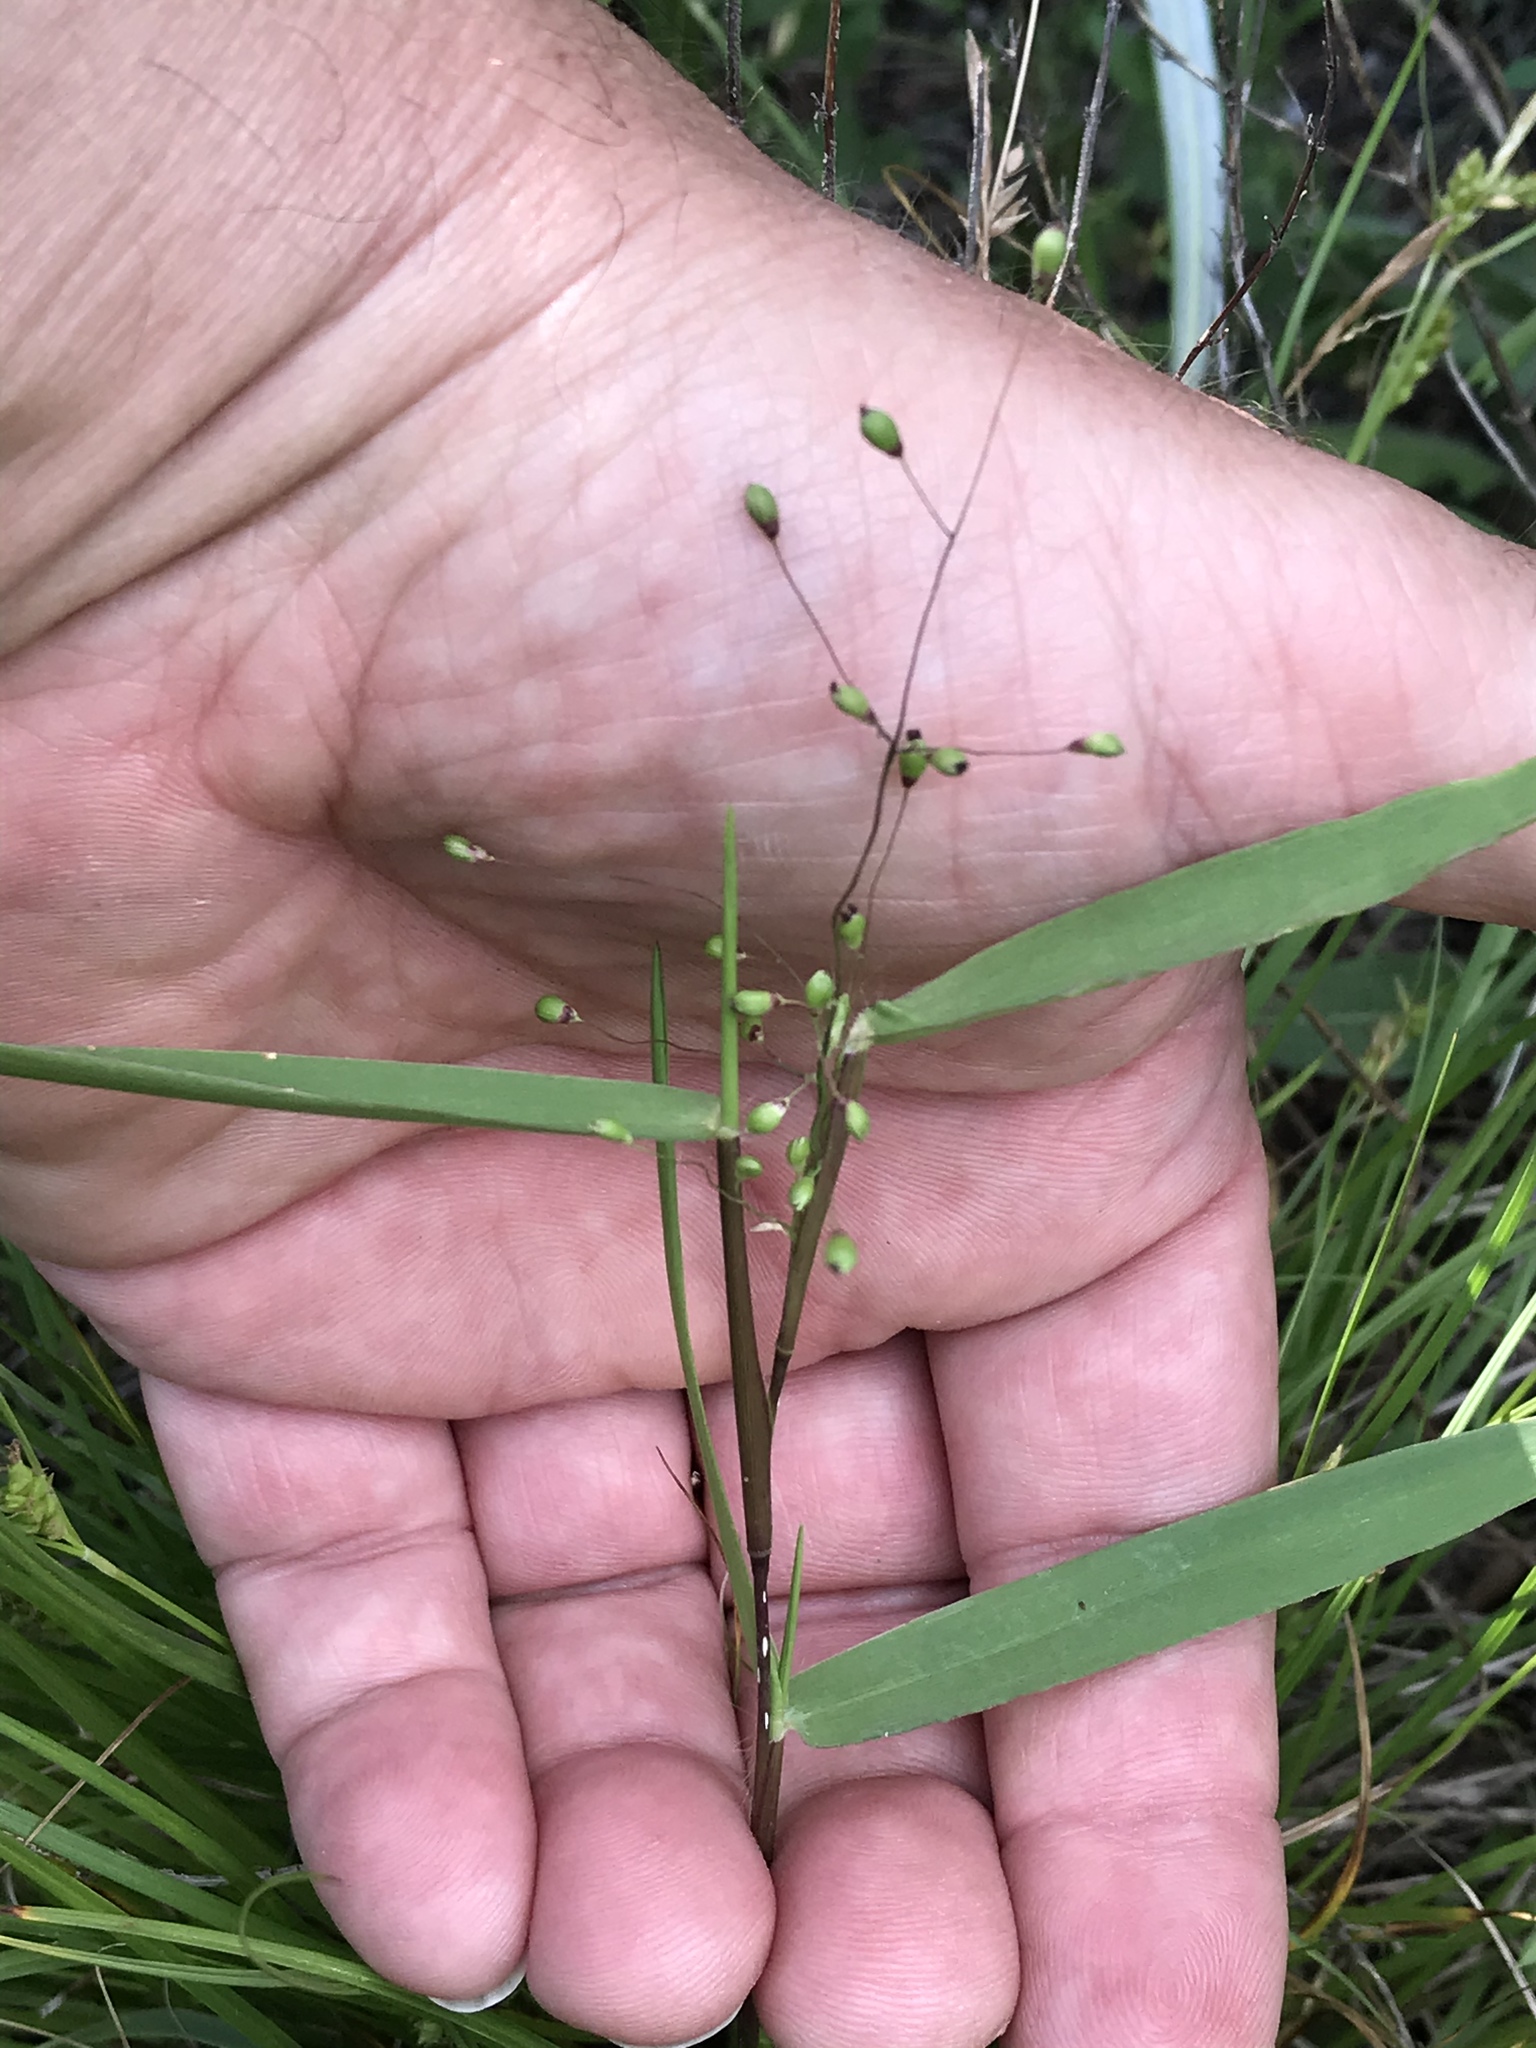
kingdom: Plantae
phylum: Tracheophyta
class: Liliopsida
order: Poales
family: Poaceae
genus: Dichanthelium
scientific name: Dichanthelium oligosanthes
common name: Few-anther obscuregrass
